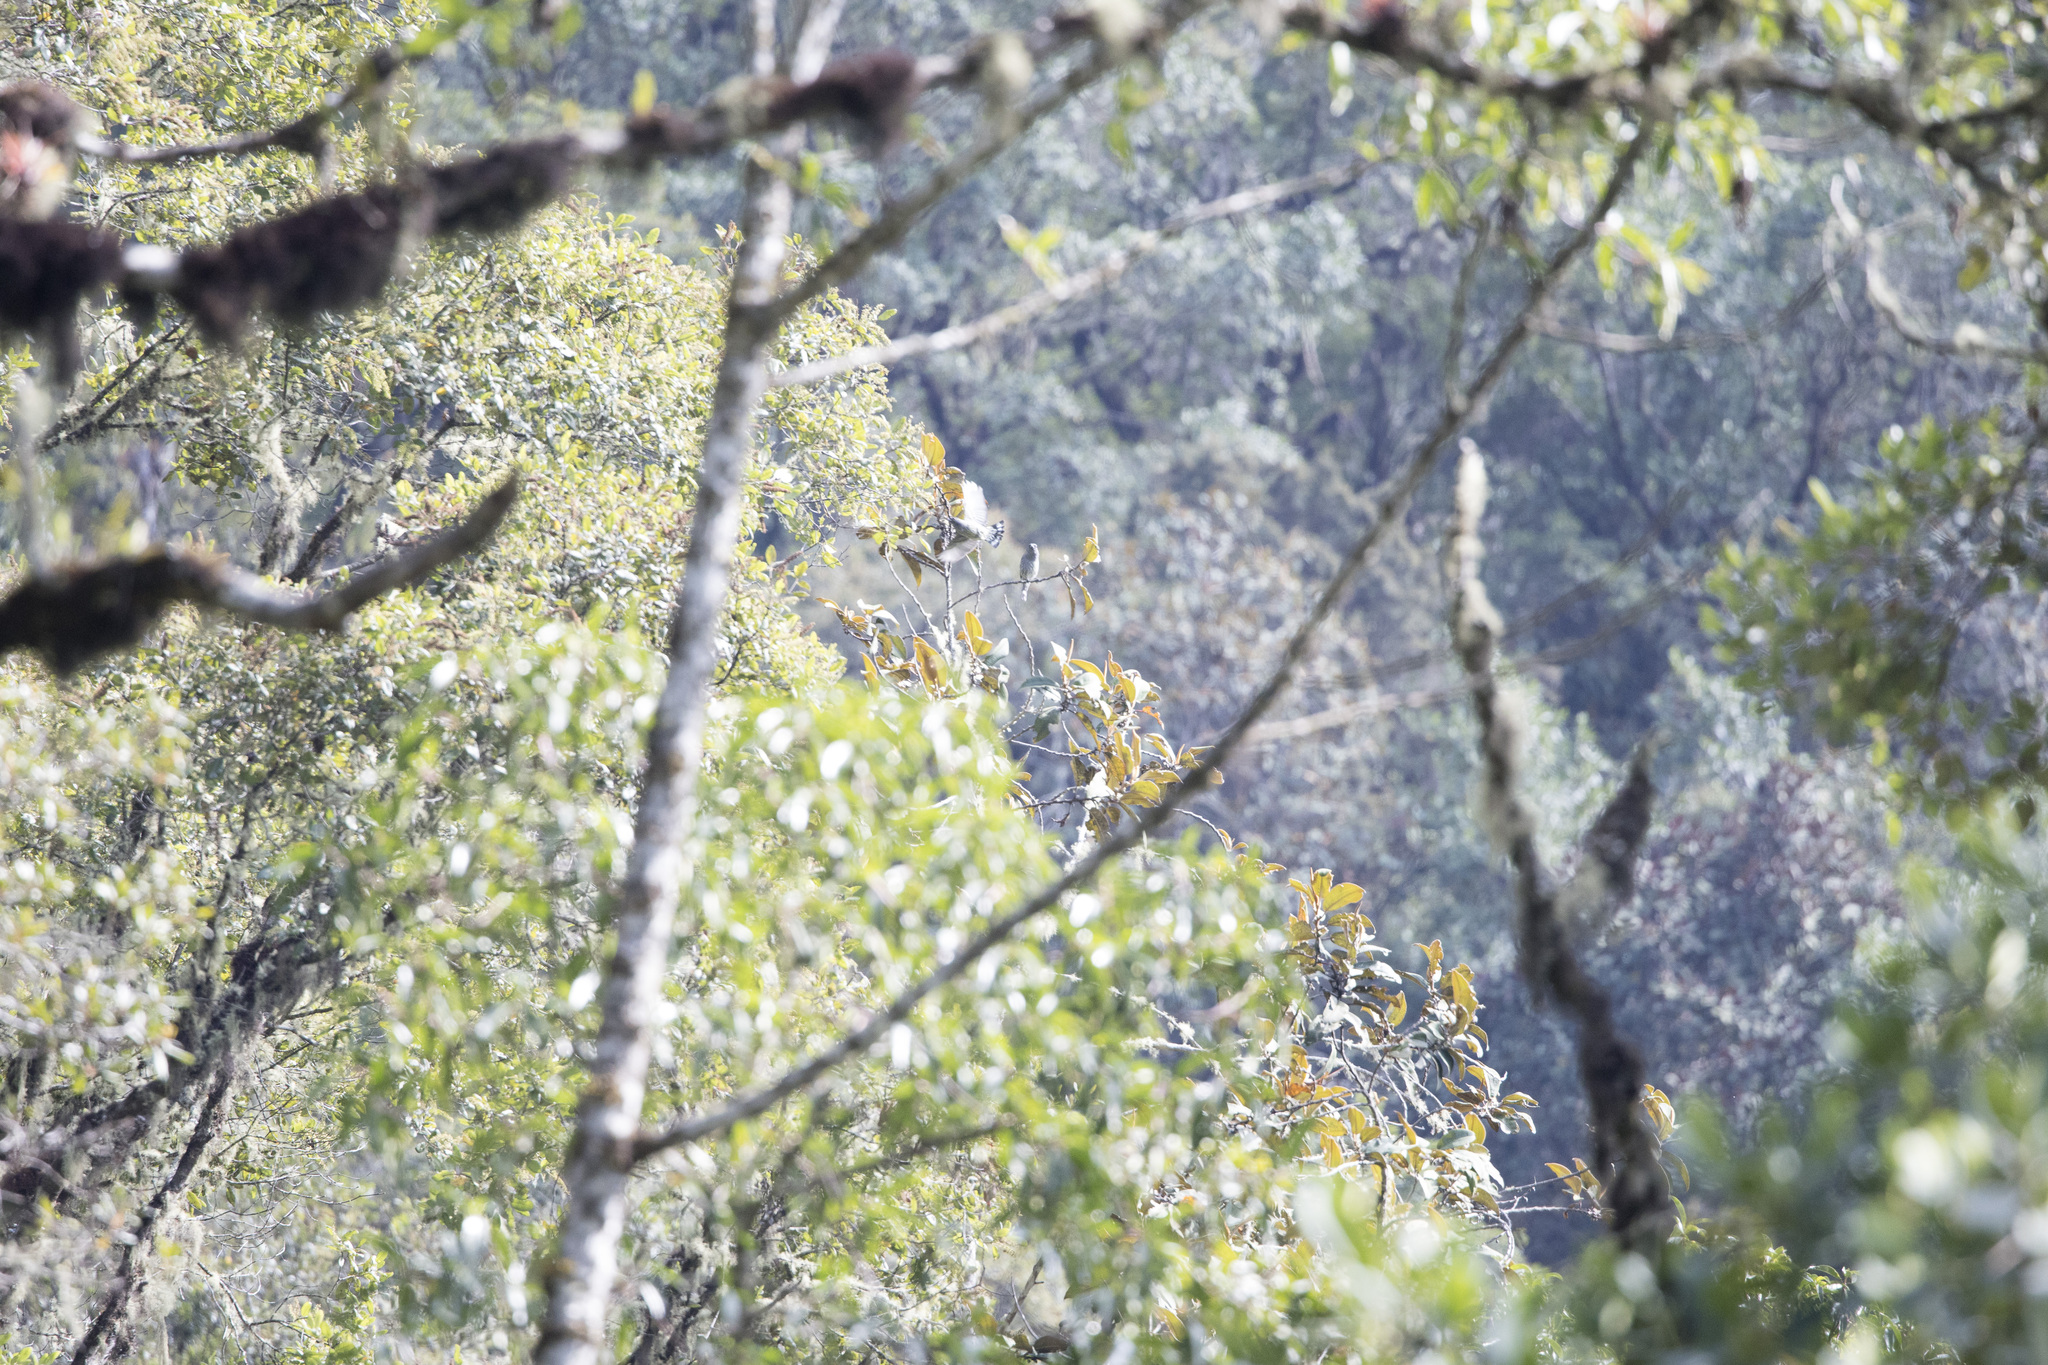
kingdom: Animalia
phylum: Chordata
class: Aves
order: Passeriformes
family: Cotingidae
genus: Ampelion
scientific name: Ampelion rubrocristatus
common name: Red-crested cotinga
